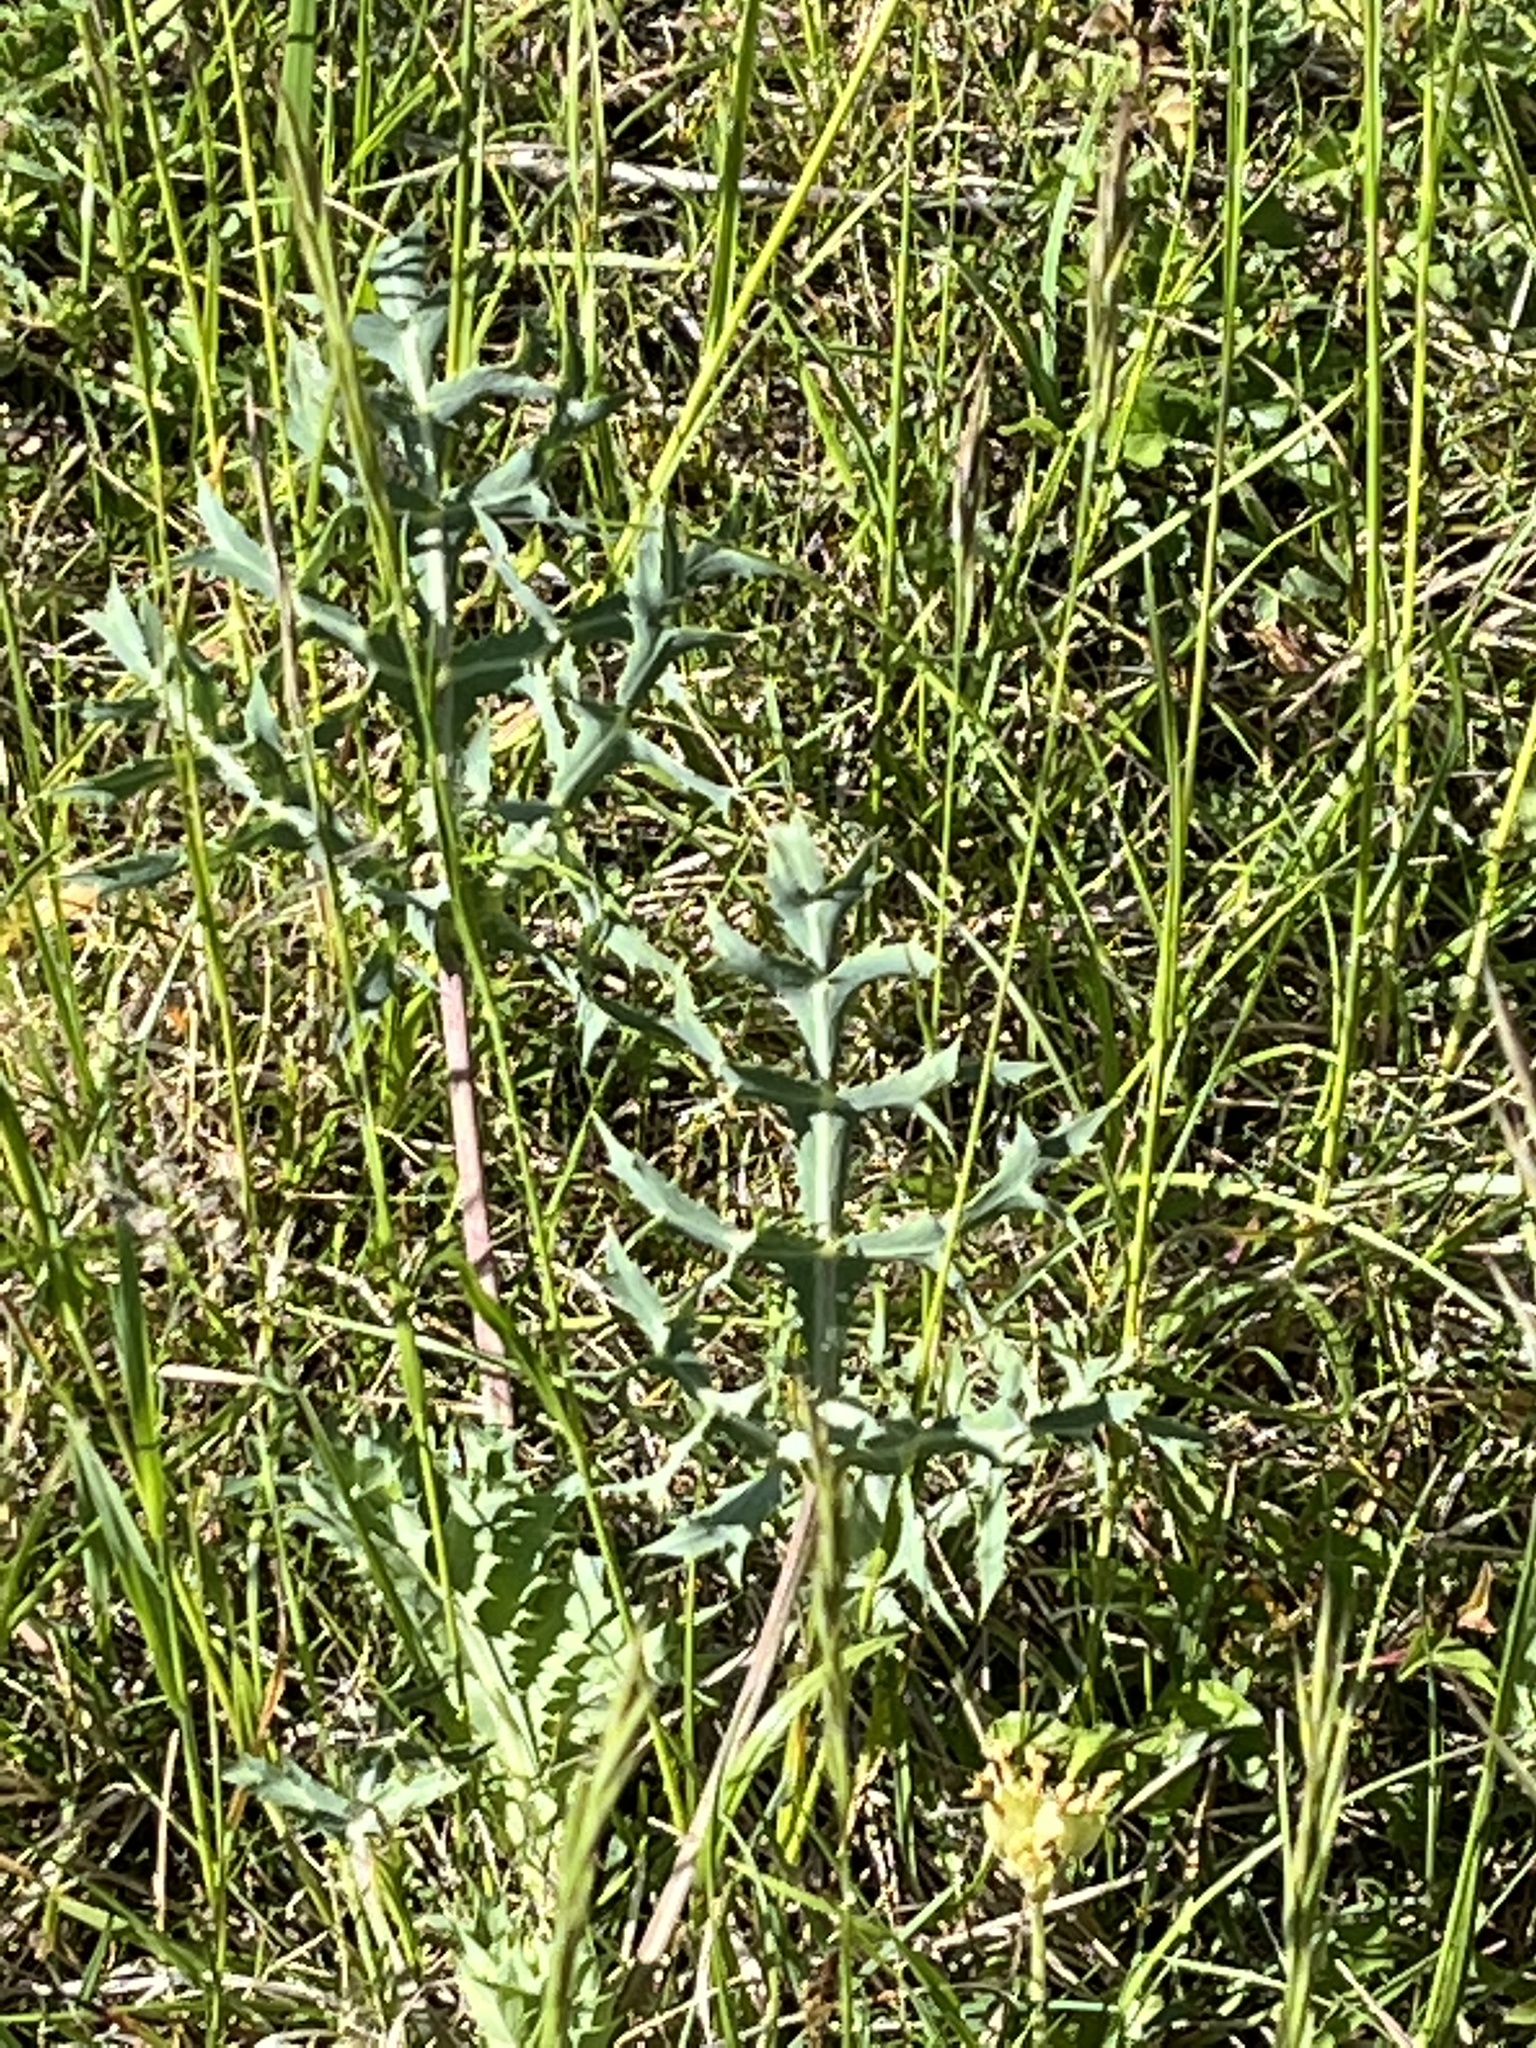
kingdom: Plantae
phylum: Tracheophyta
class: Magnoliopsida
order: Apiales
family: Apiaceae
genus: Eryngium
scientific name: Eryngium campestre
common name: Field eryngo
